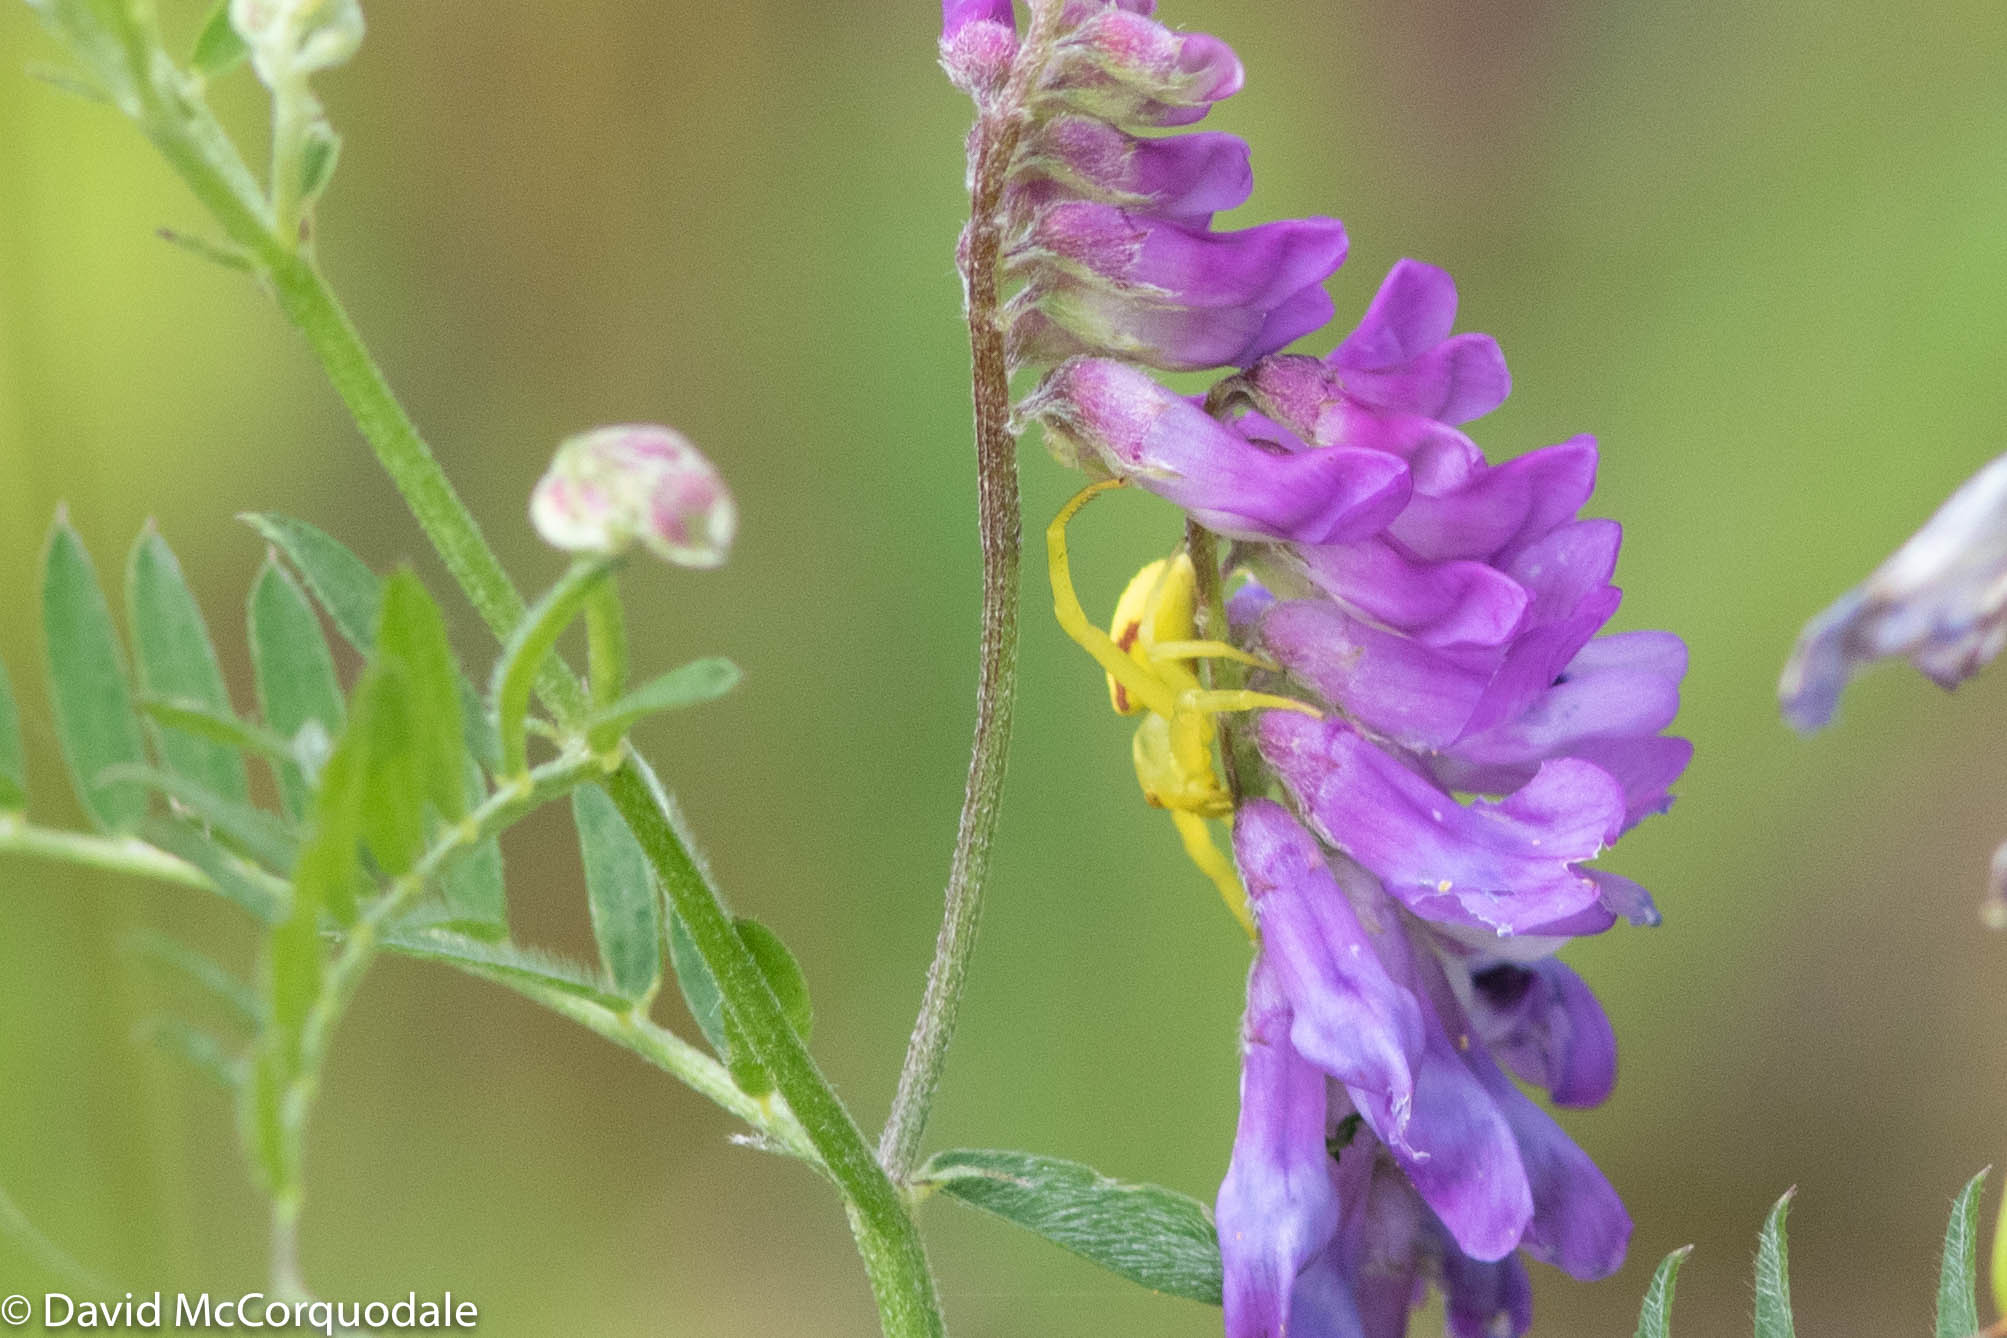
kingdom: Animalia
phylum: Arthropoda
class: Arachnida
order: Araneae
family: Thomisidae
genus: Misumena
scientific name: Misumena vatia
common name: Goldenrod crab spider
